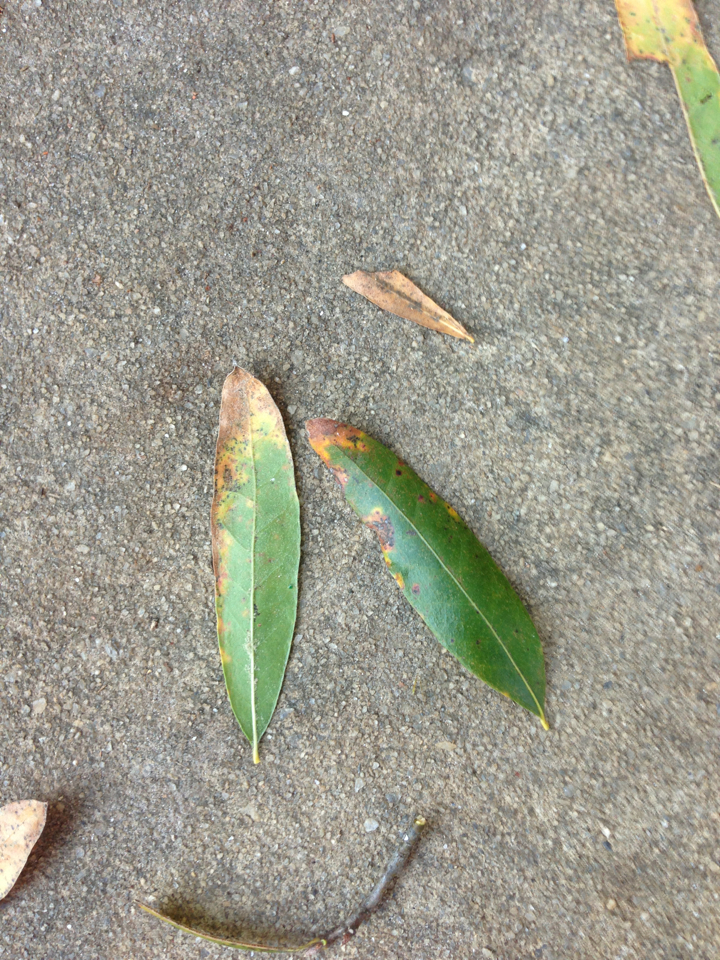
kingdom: Plantae
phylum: Tracheophyta
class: Magnoliopsida
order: Fagales
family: Fagaceae
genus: Quercus
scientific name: Quercus phellos
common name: Willow oak
